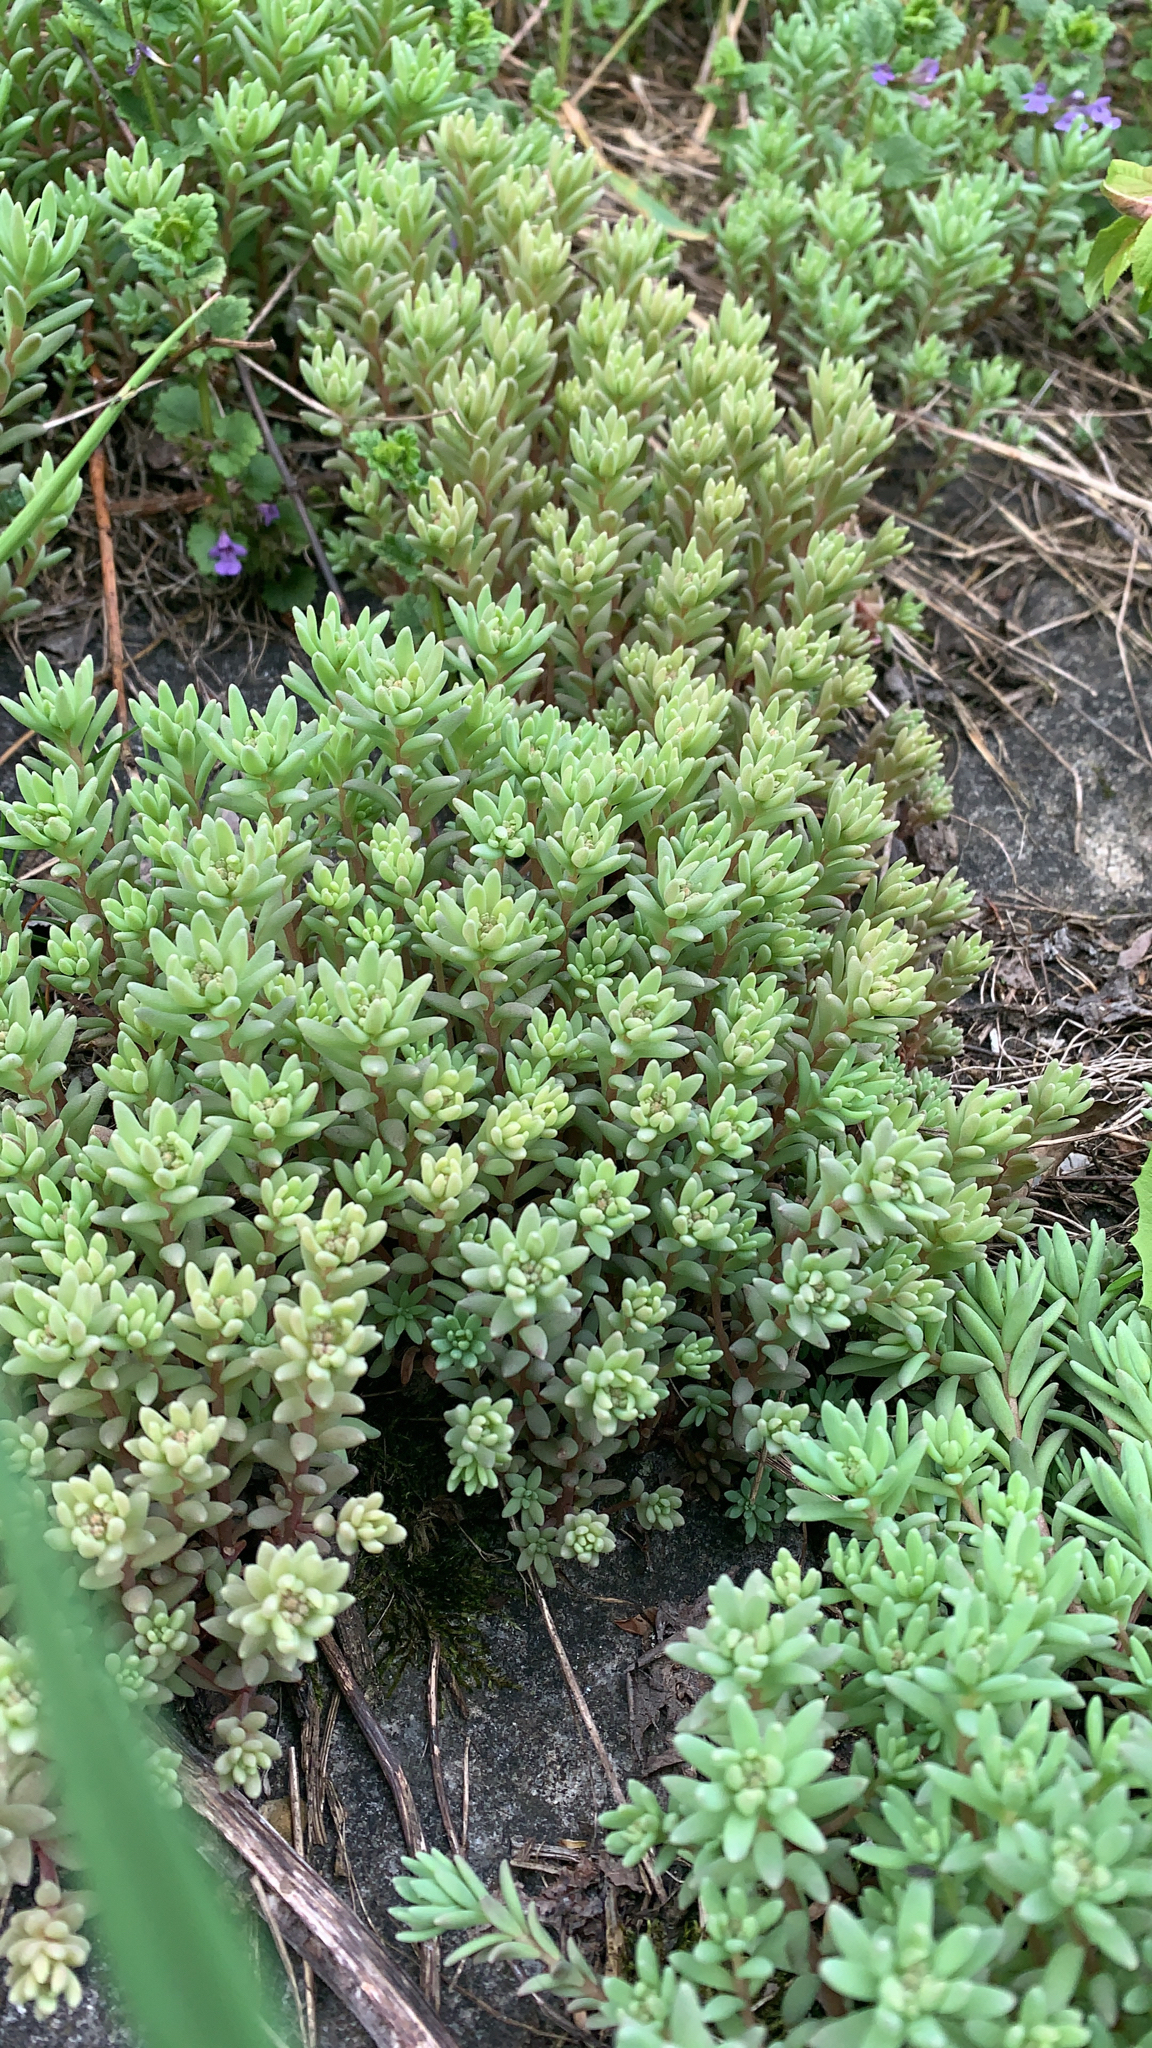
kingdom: Plantae
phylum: Tracheophyta
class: Magnoliopsida
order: Saxifragales
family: Crassulaceae
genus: Sedum
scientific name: Sedum hispanicum
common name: Spanish stonecrop
